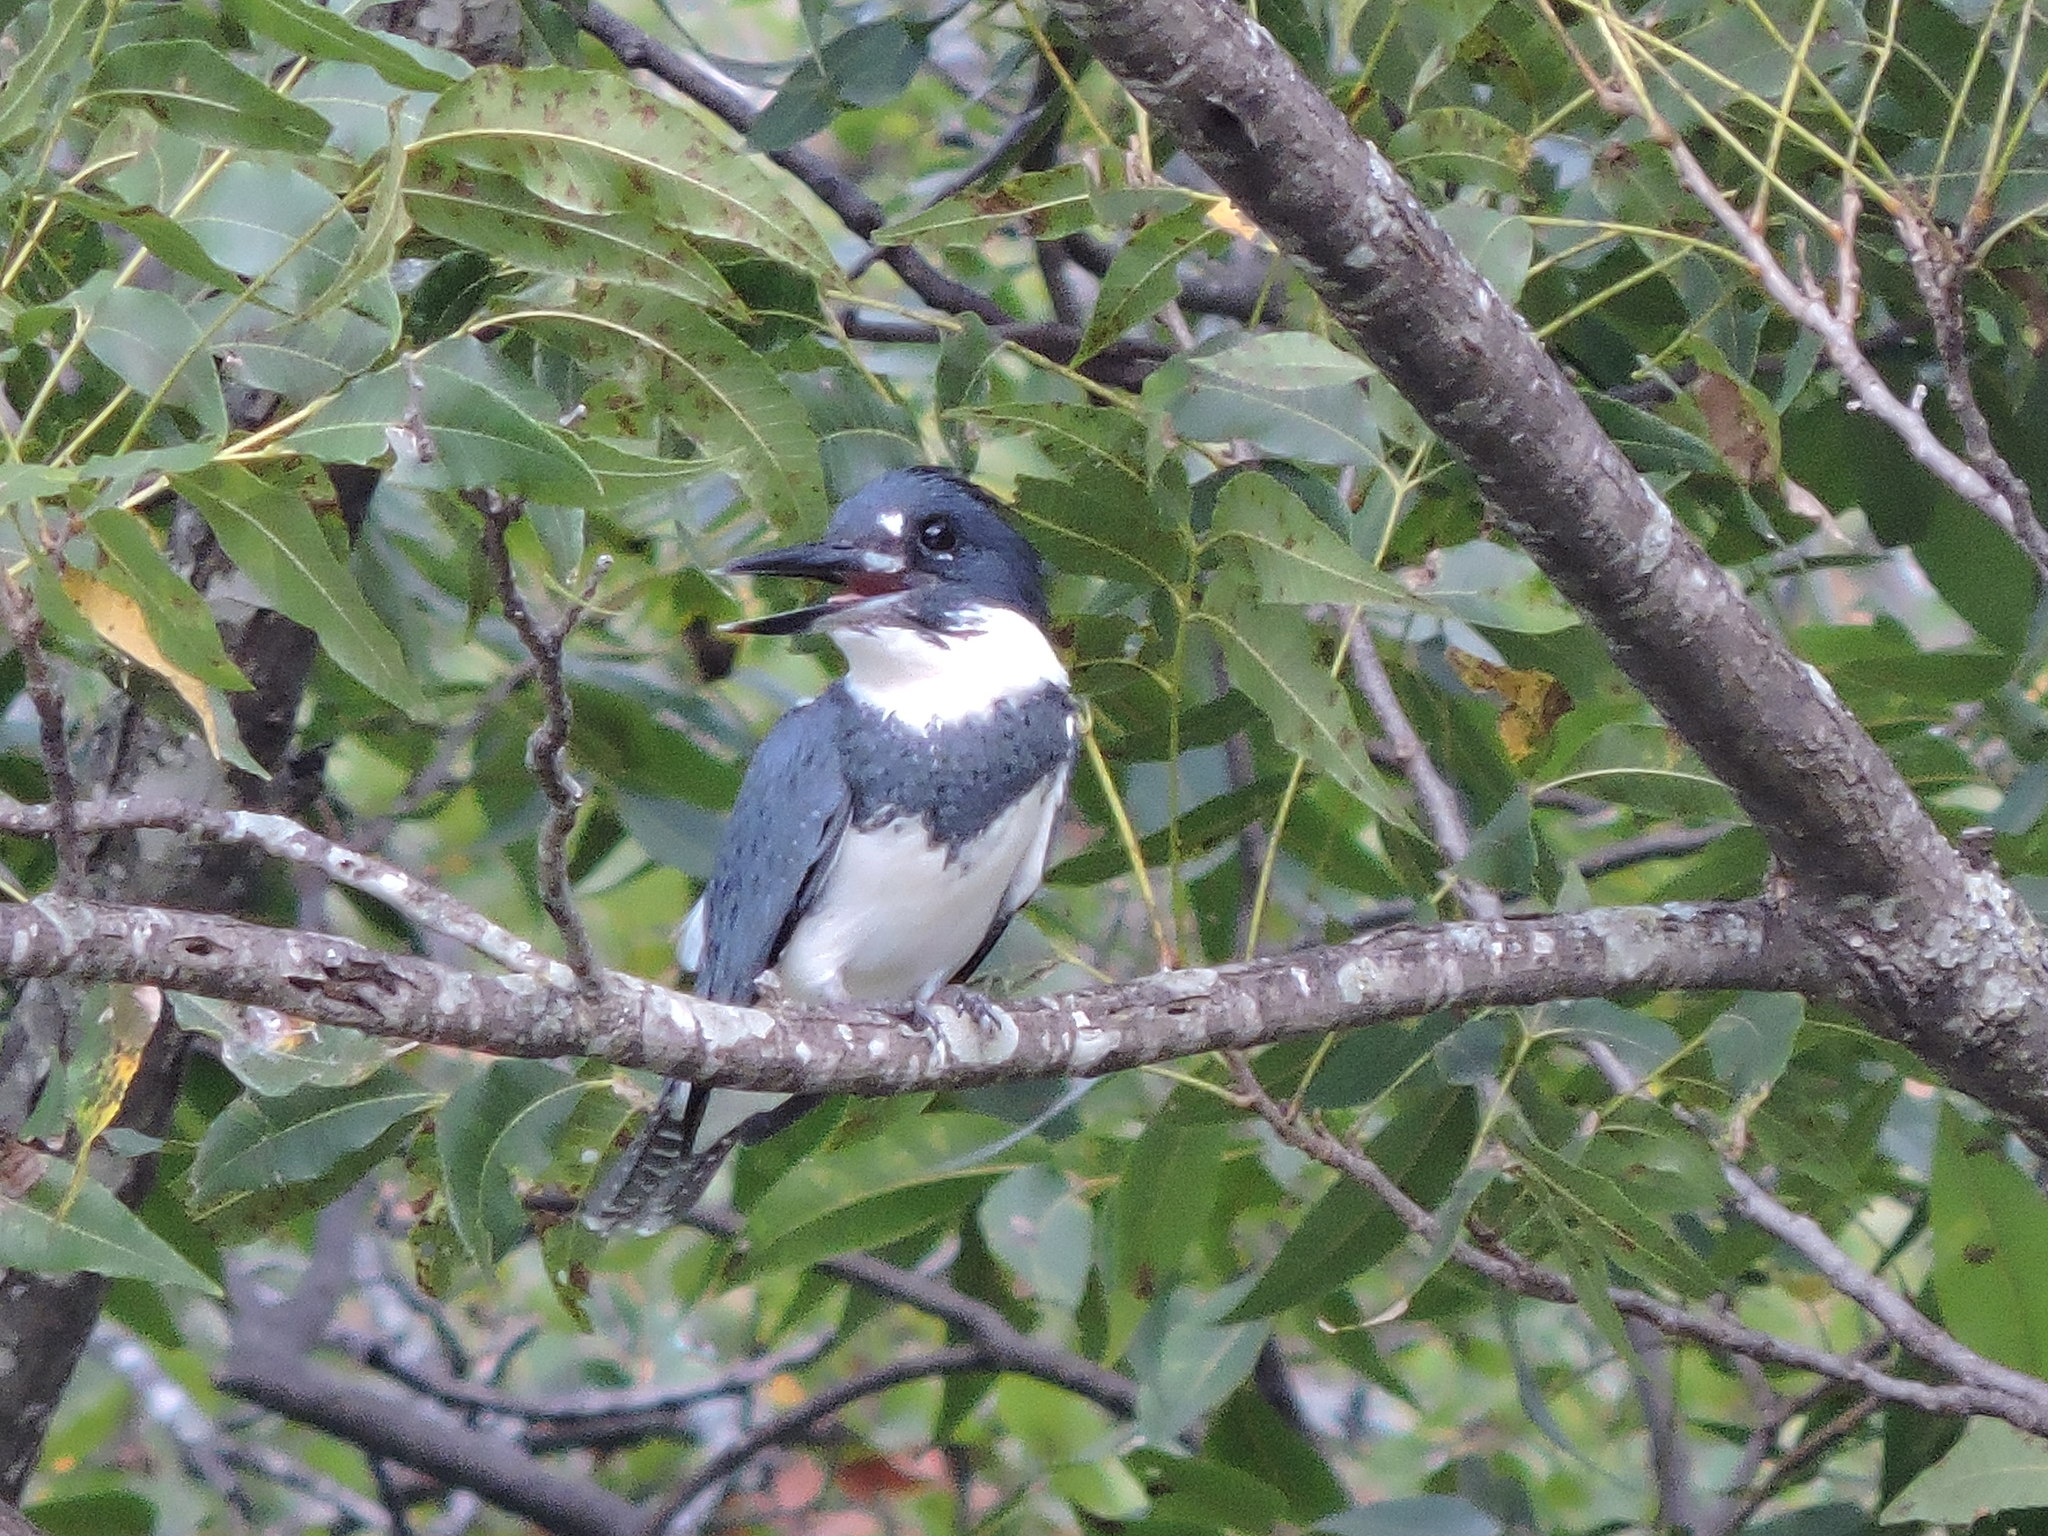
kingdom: Animalia
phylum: Chordata
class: Aves
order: Coraciiformes
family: Alcedinidae
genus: Megaceryle
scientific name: Megaceryle alcyon
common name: Belted kingfisher
